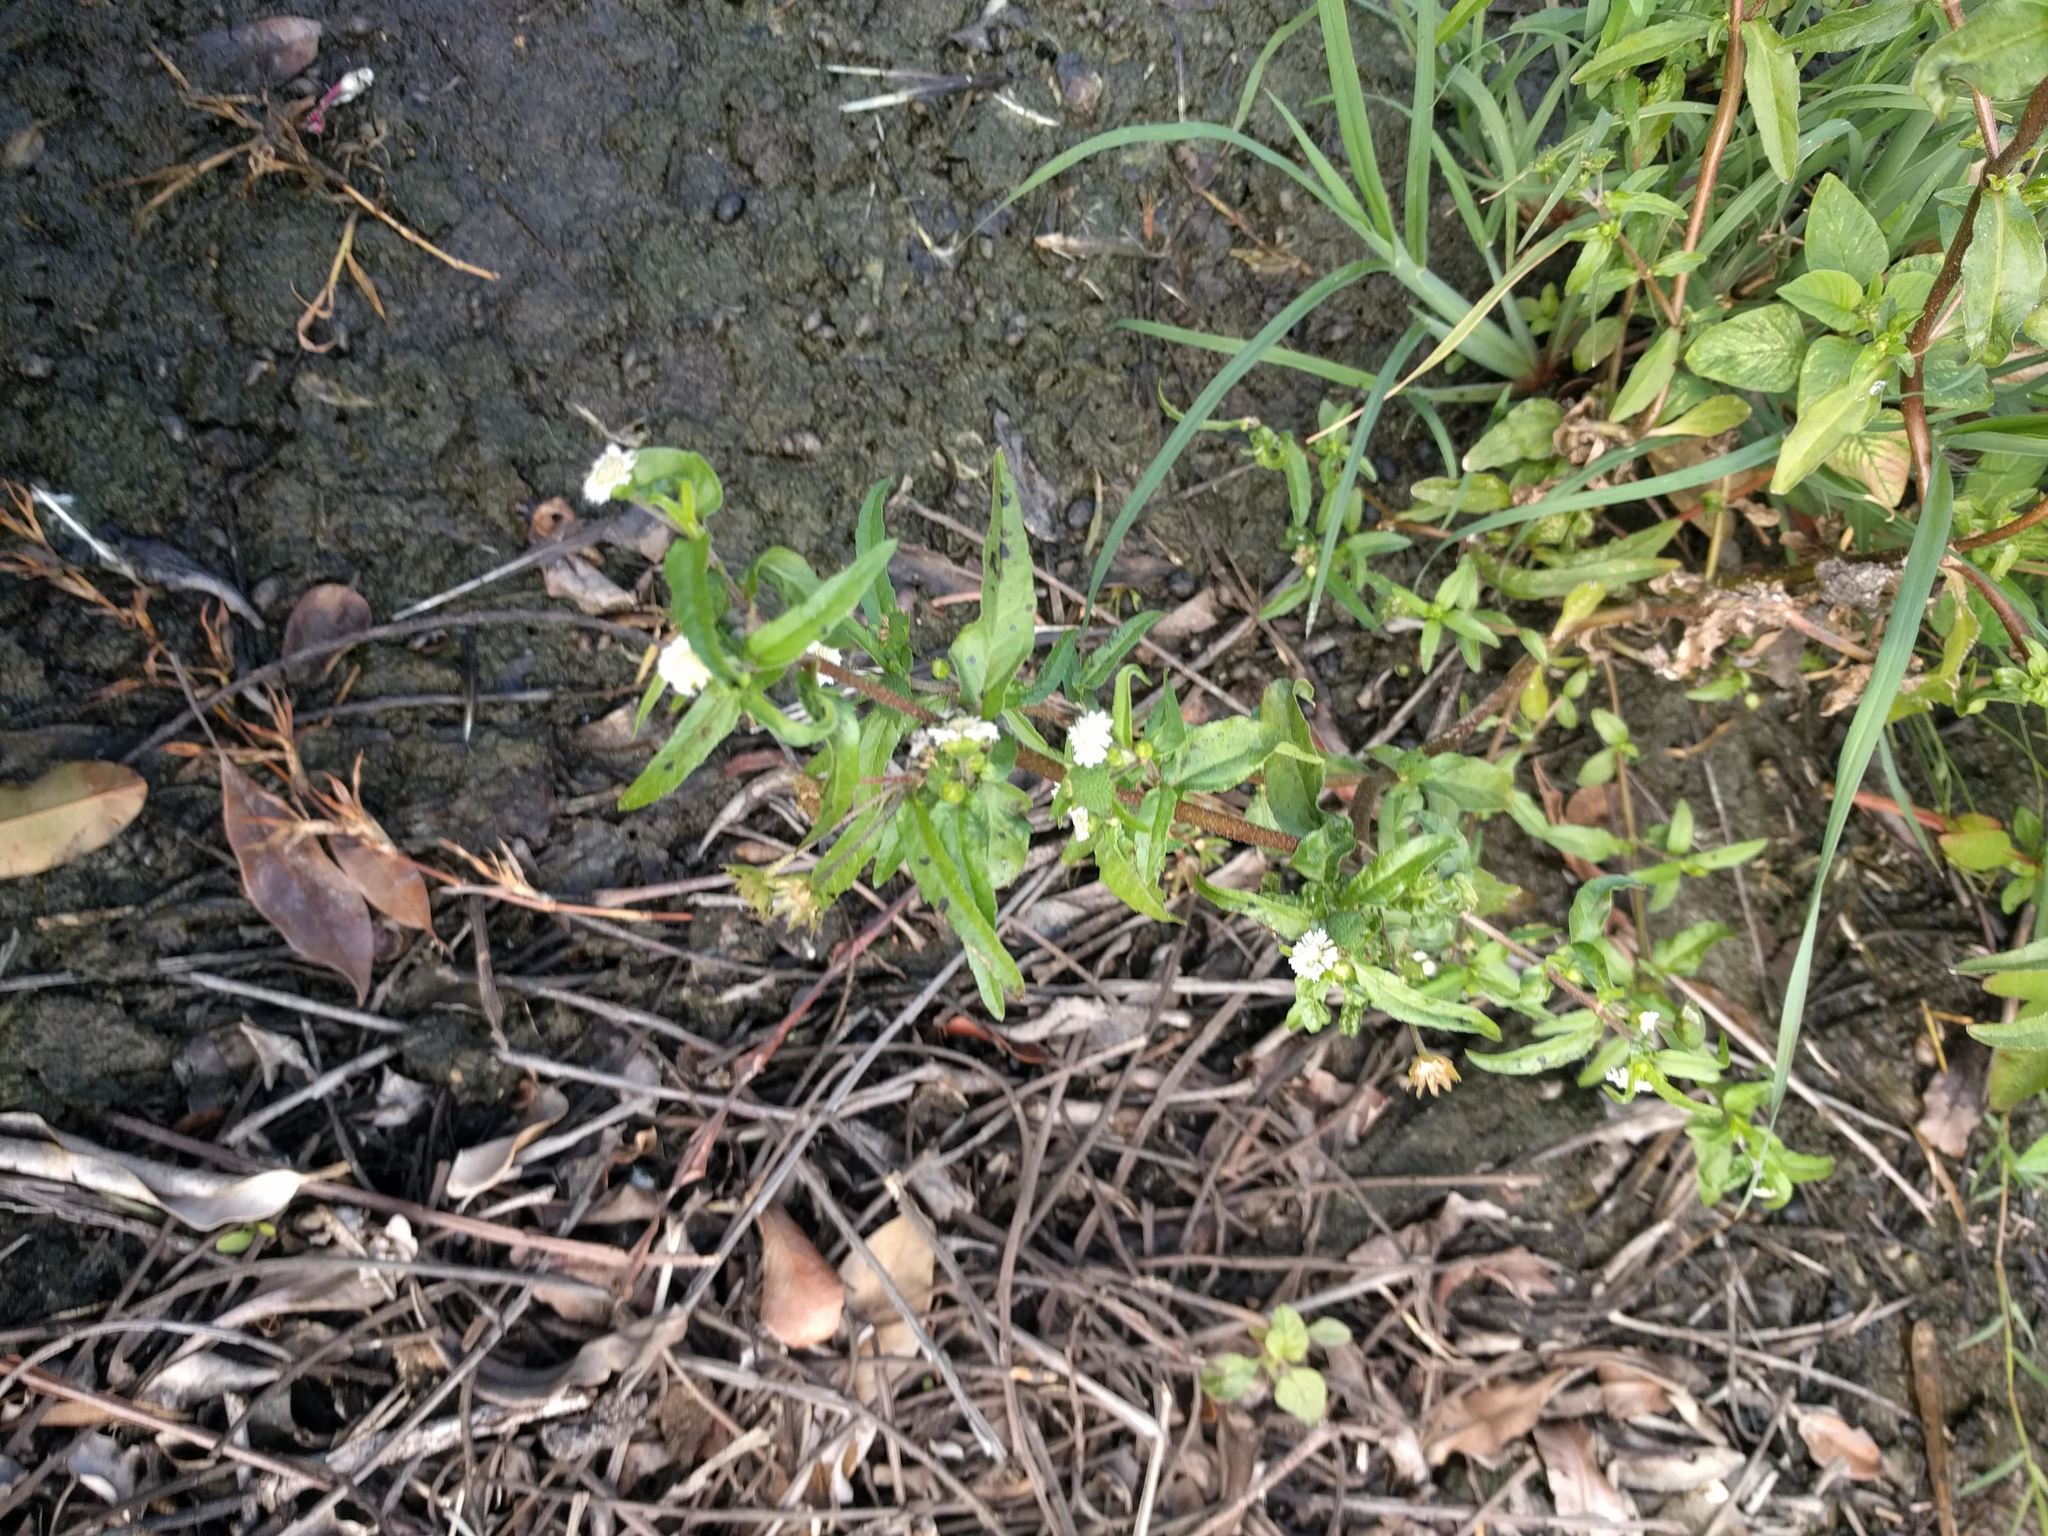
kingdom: Plantae
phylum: Tracheophyta
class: Magnoliopsida
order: Asterales
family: Asteraceae
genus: Eclipta
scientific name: Eclipta prostrata
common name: False daisy
